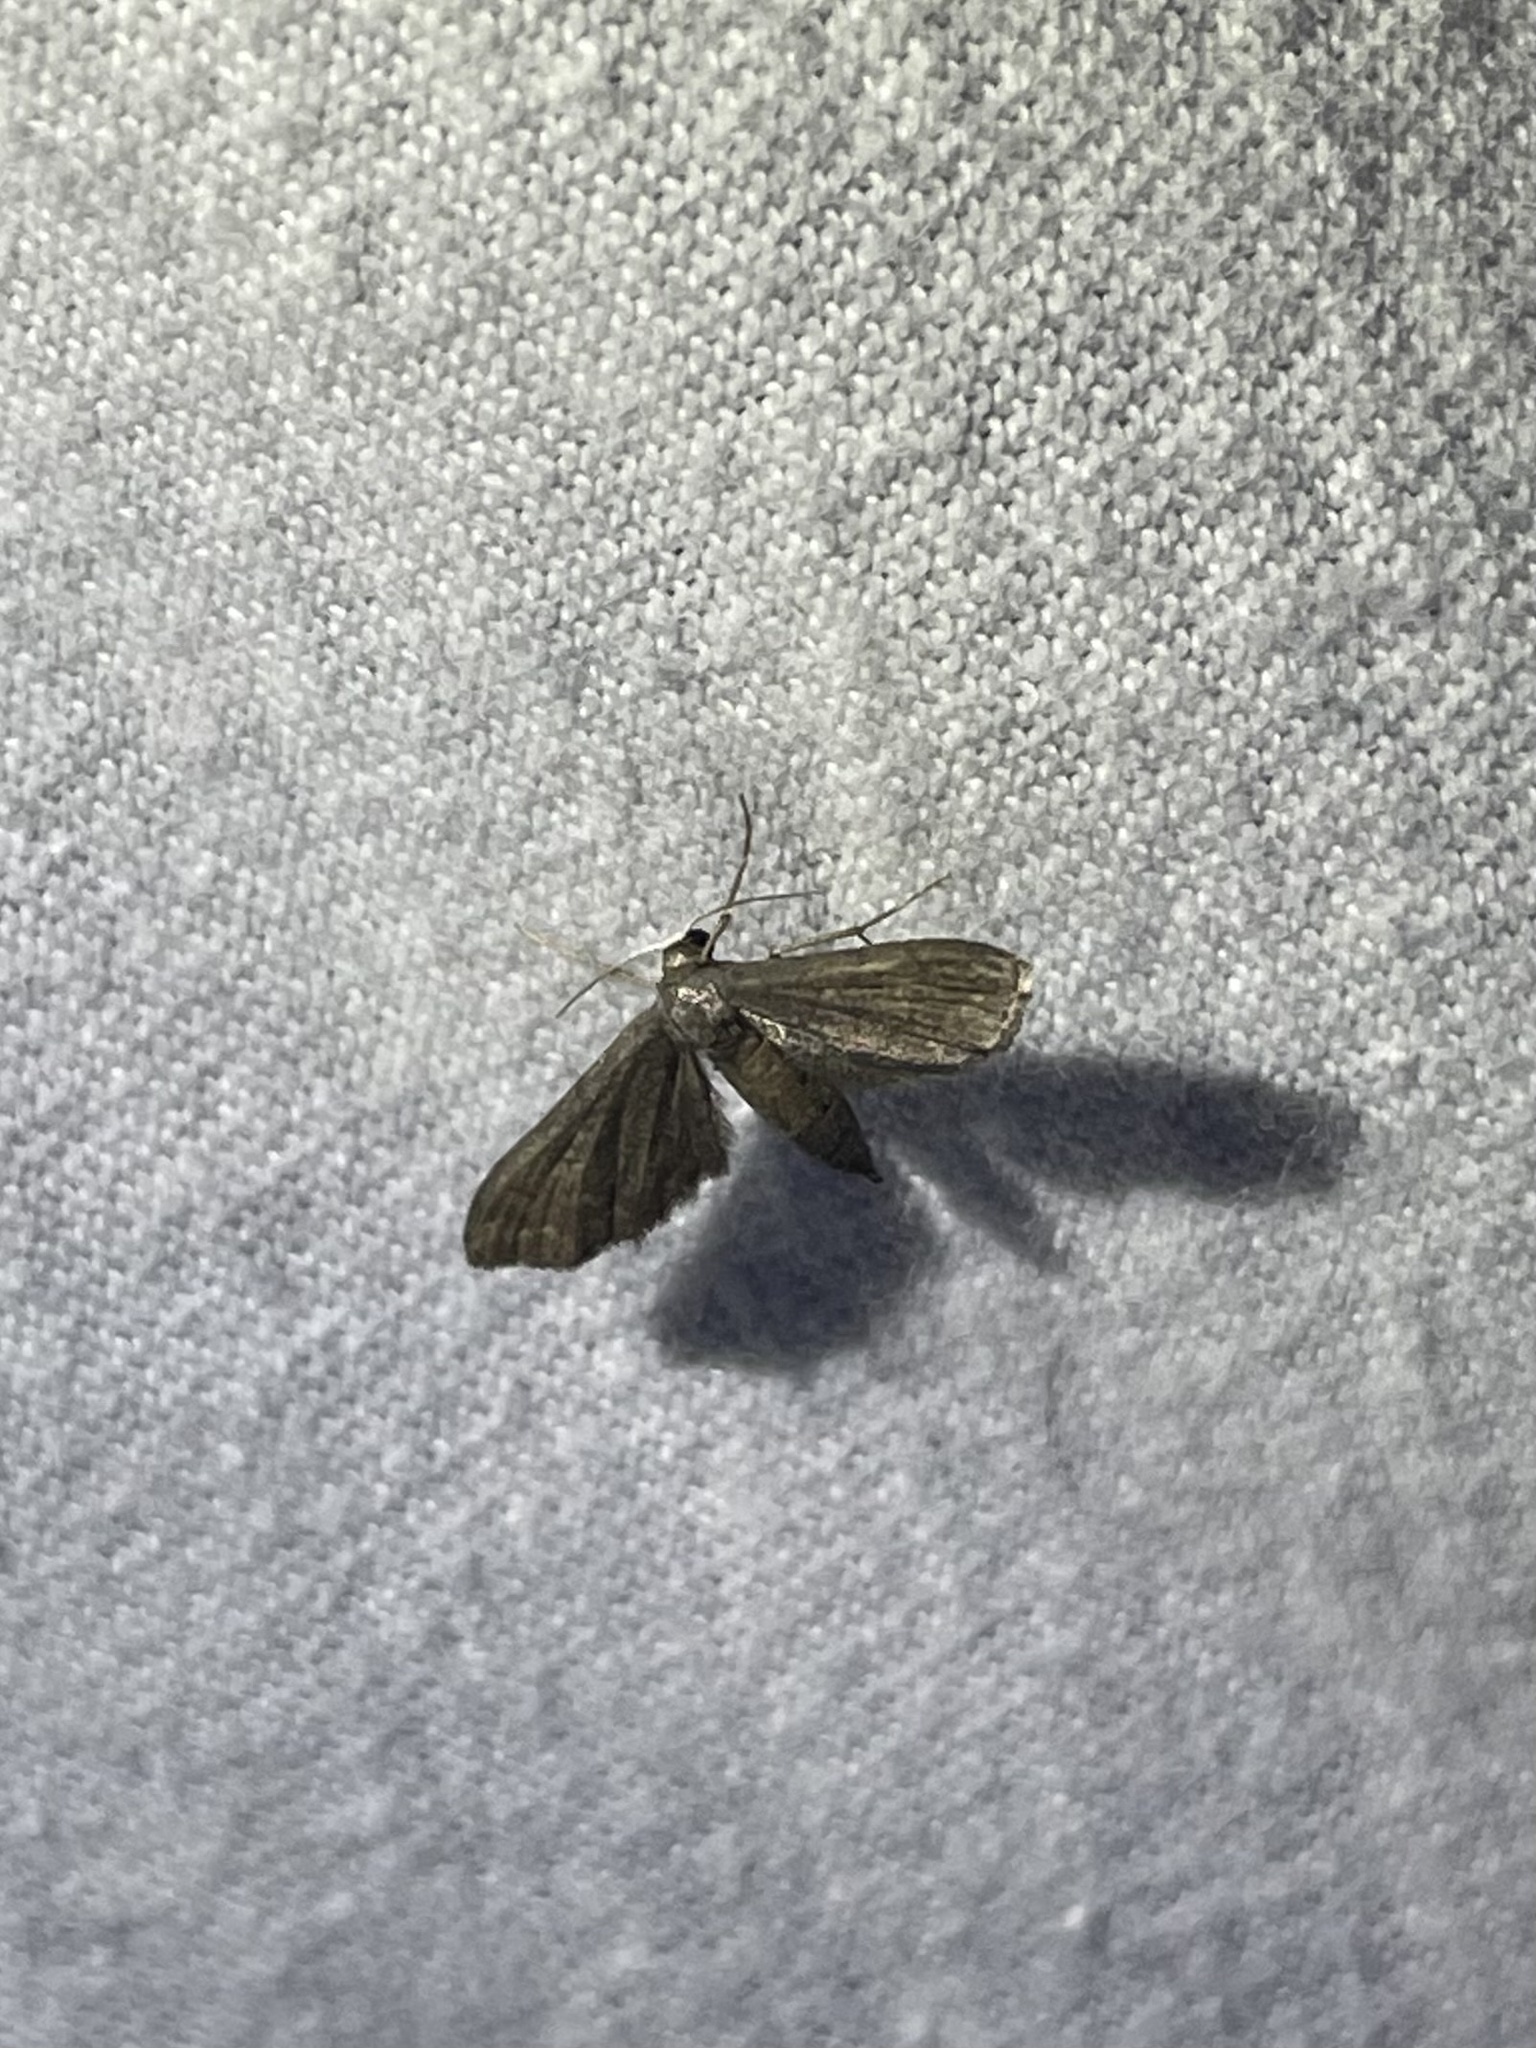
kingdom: Animalia
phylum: Arthropoda
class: Insecta
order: Lepidoptera
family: Geometridae
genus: Protoproutia
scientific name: Protoproutia laredoata
